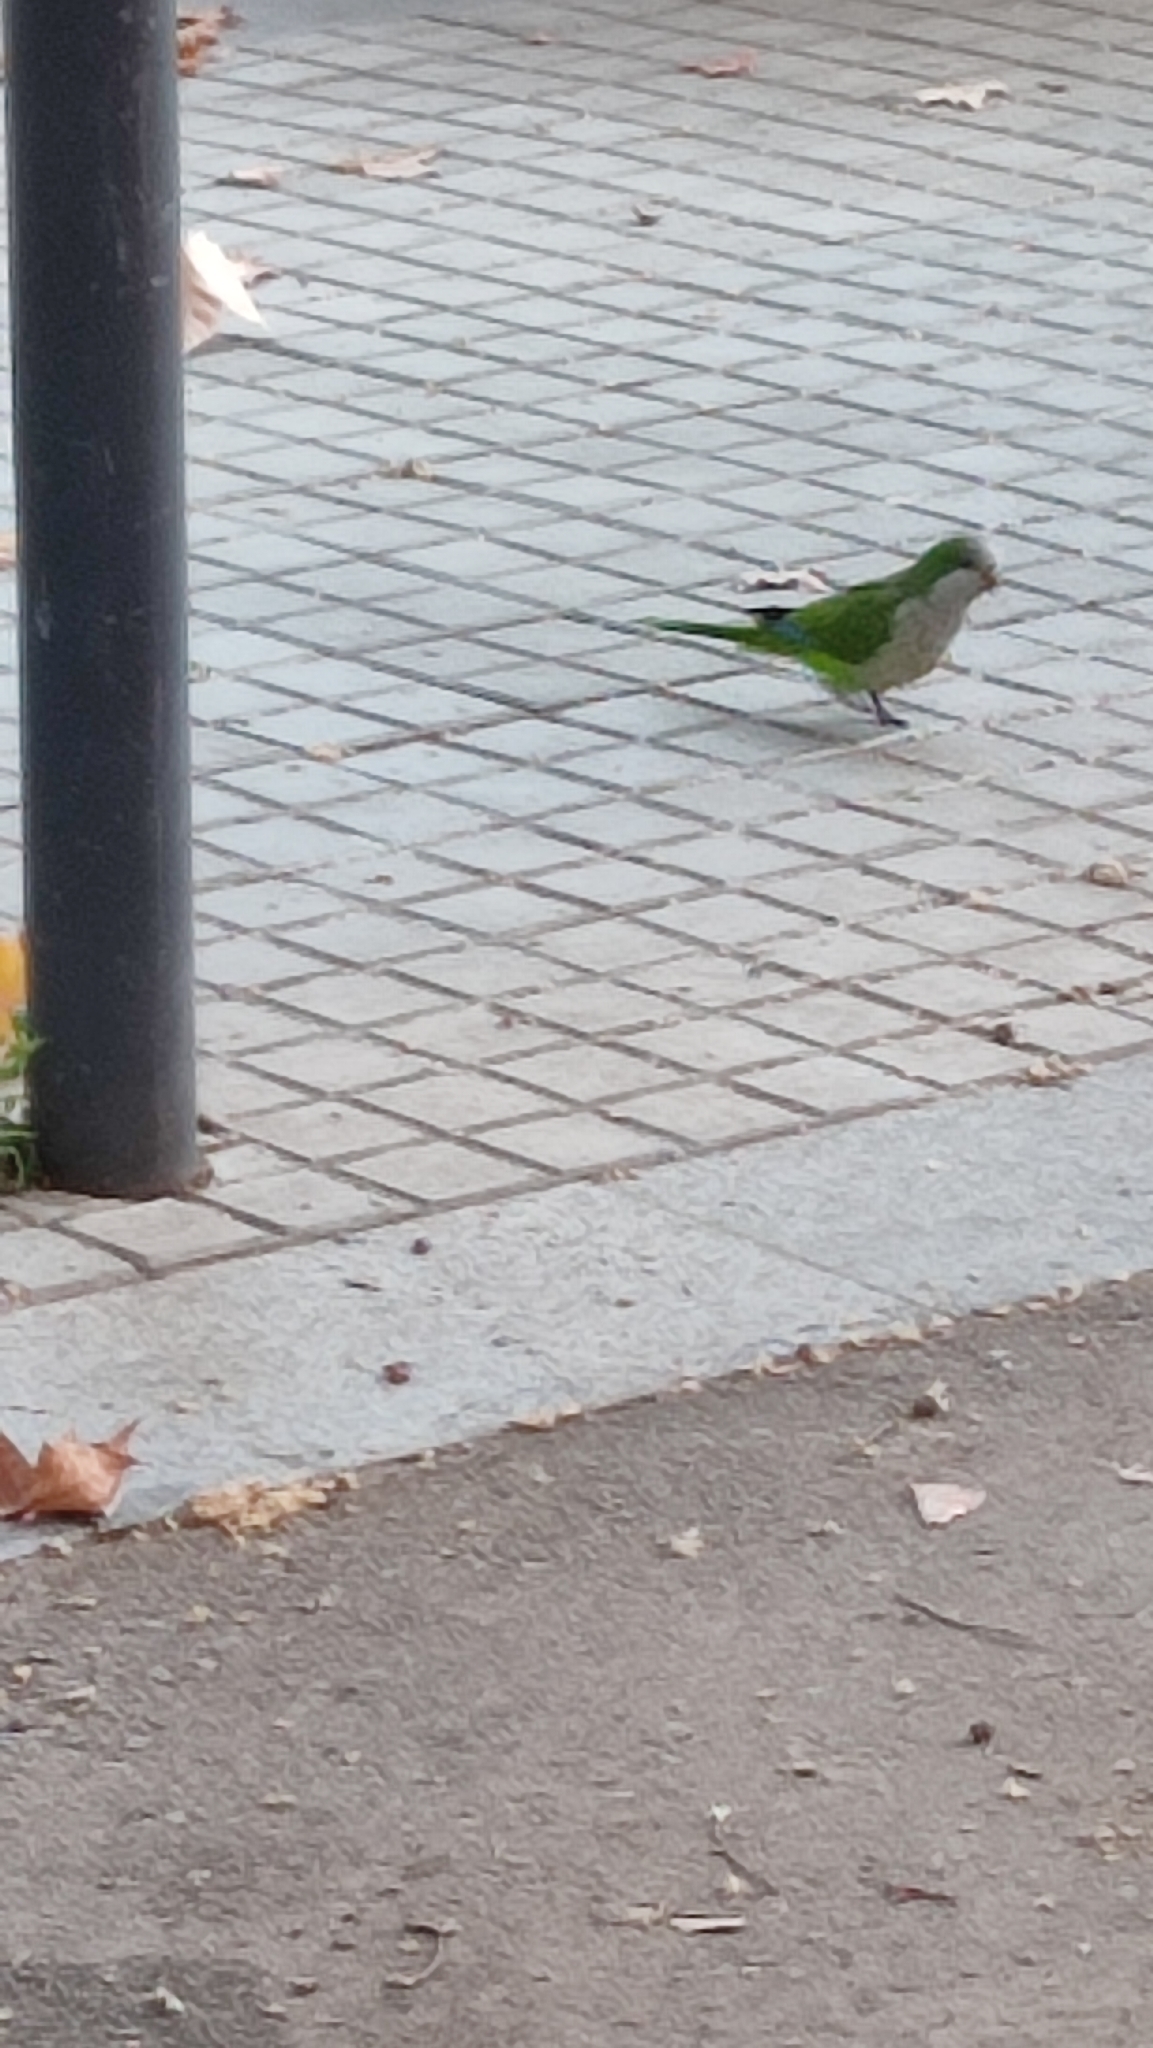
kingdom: Animalia
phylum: Chordata
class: Aves
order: Psittaciformes
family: Psittacidae
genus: Myiopsitta
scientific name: Myiopsitta monachus
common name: Monk parakeet
